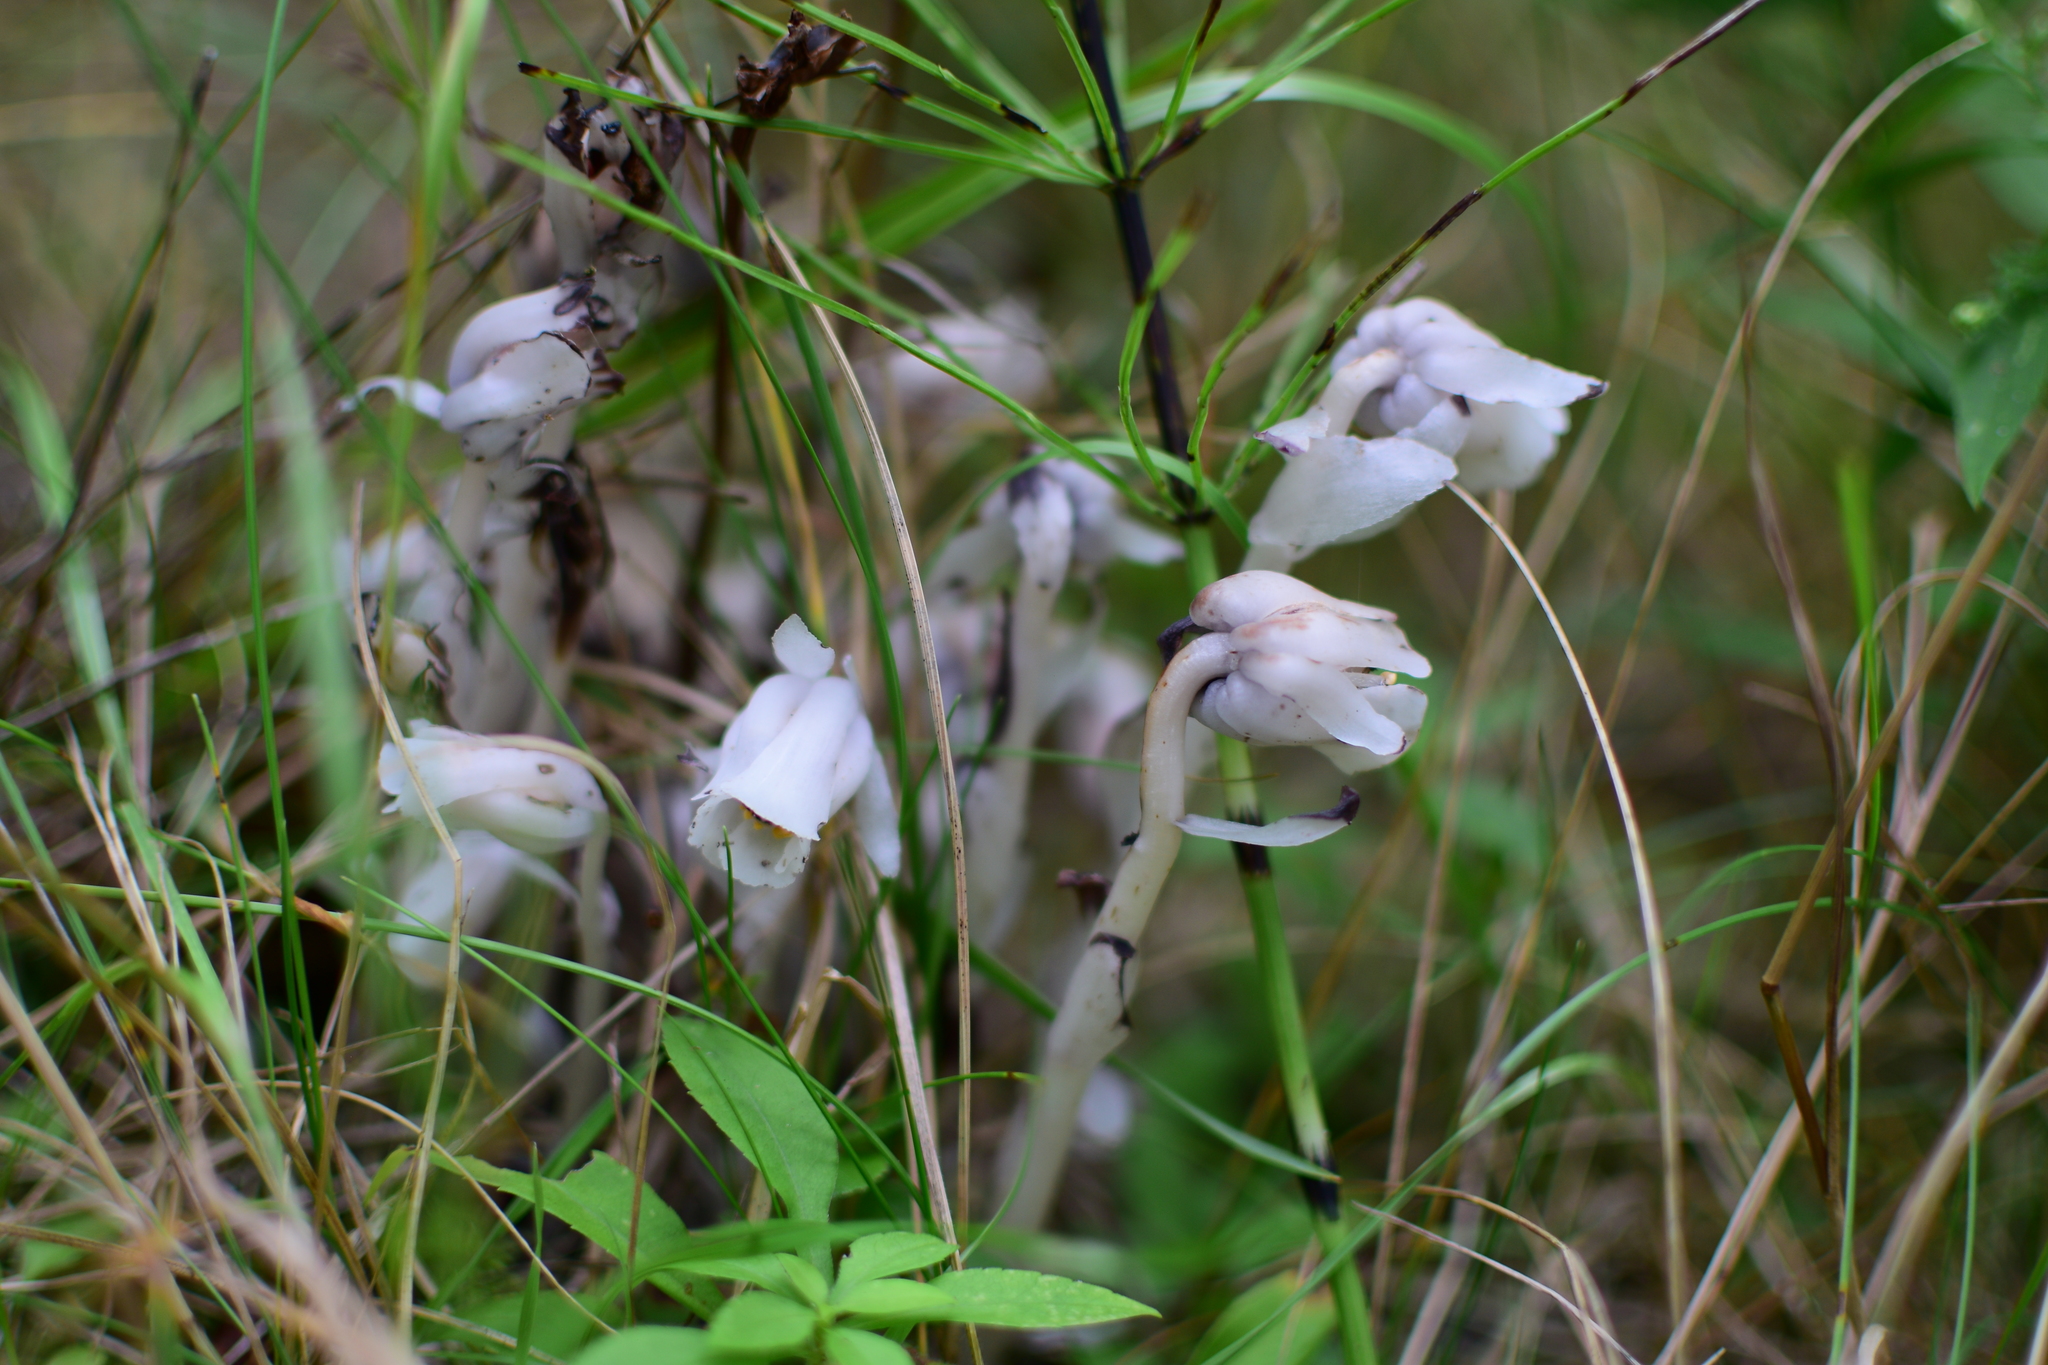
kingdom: Plantae
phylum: Tracheophyta
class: Magnoliopsida
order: Ericales
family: Ericaceae
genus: Monotropa
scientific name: Monotropa uniflora
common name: Convulsion root
